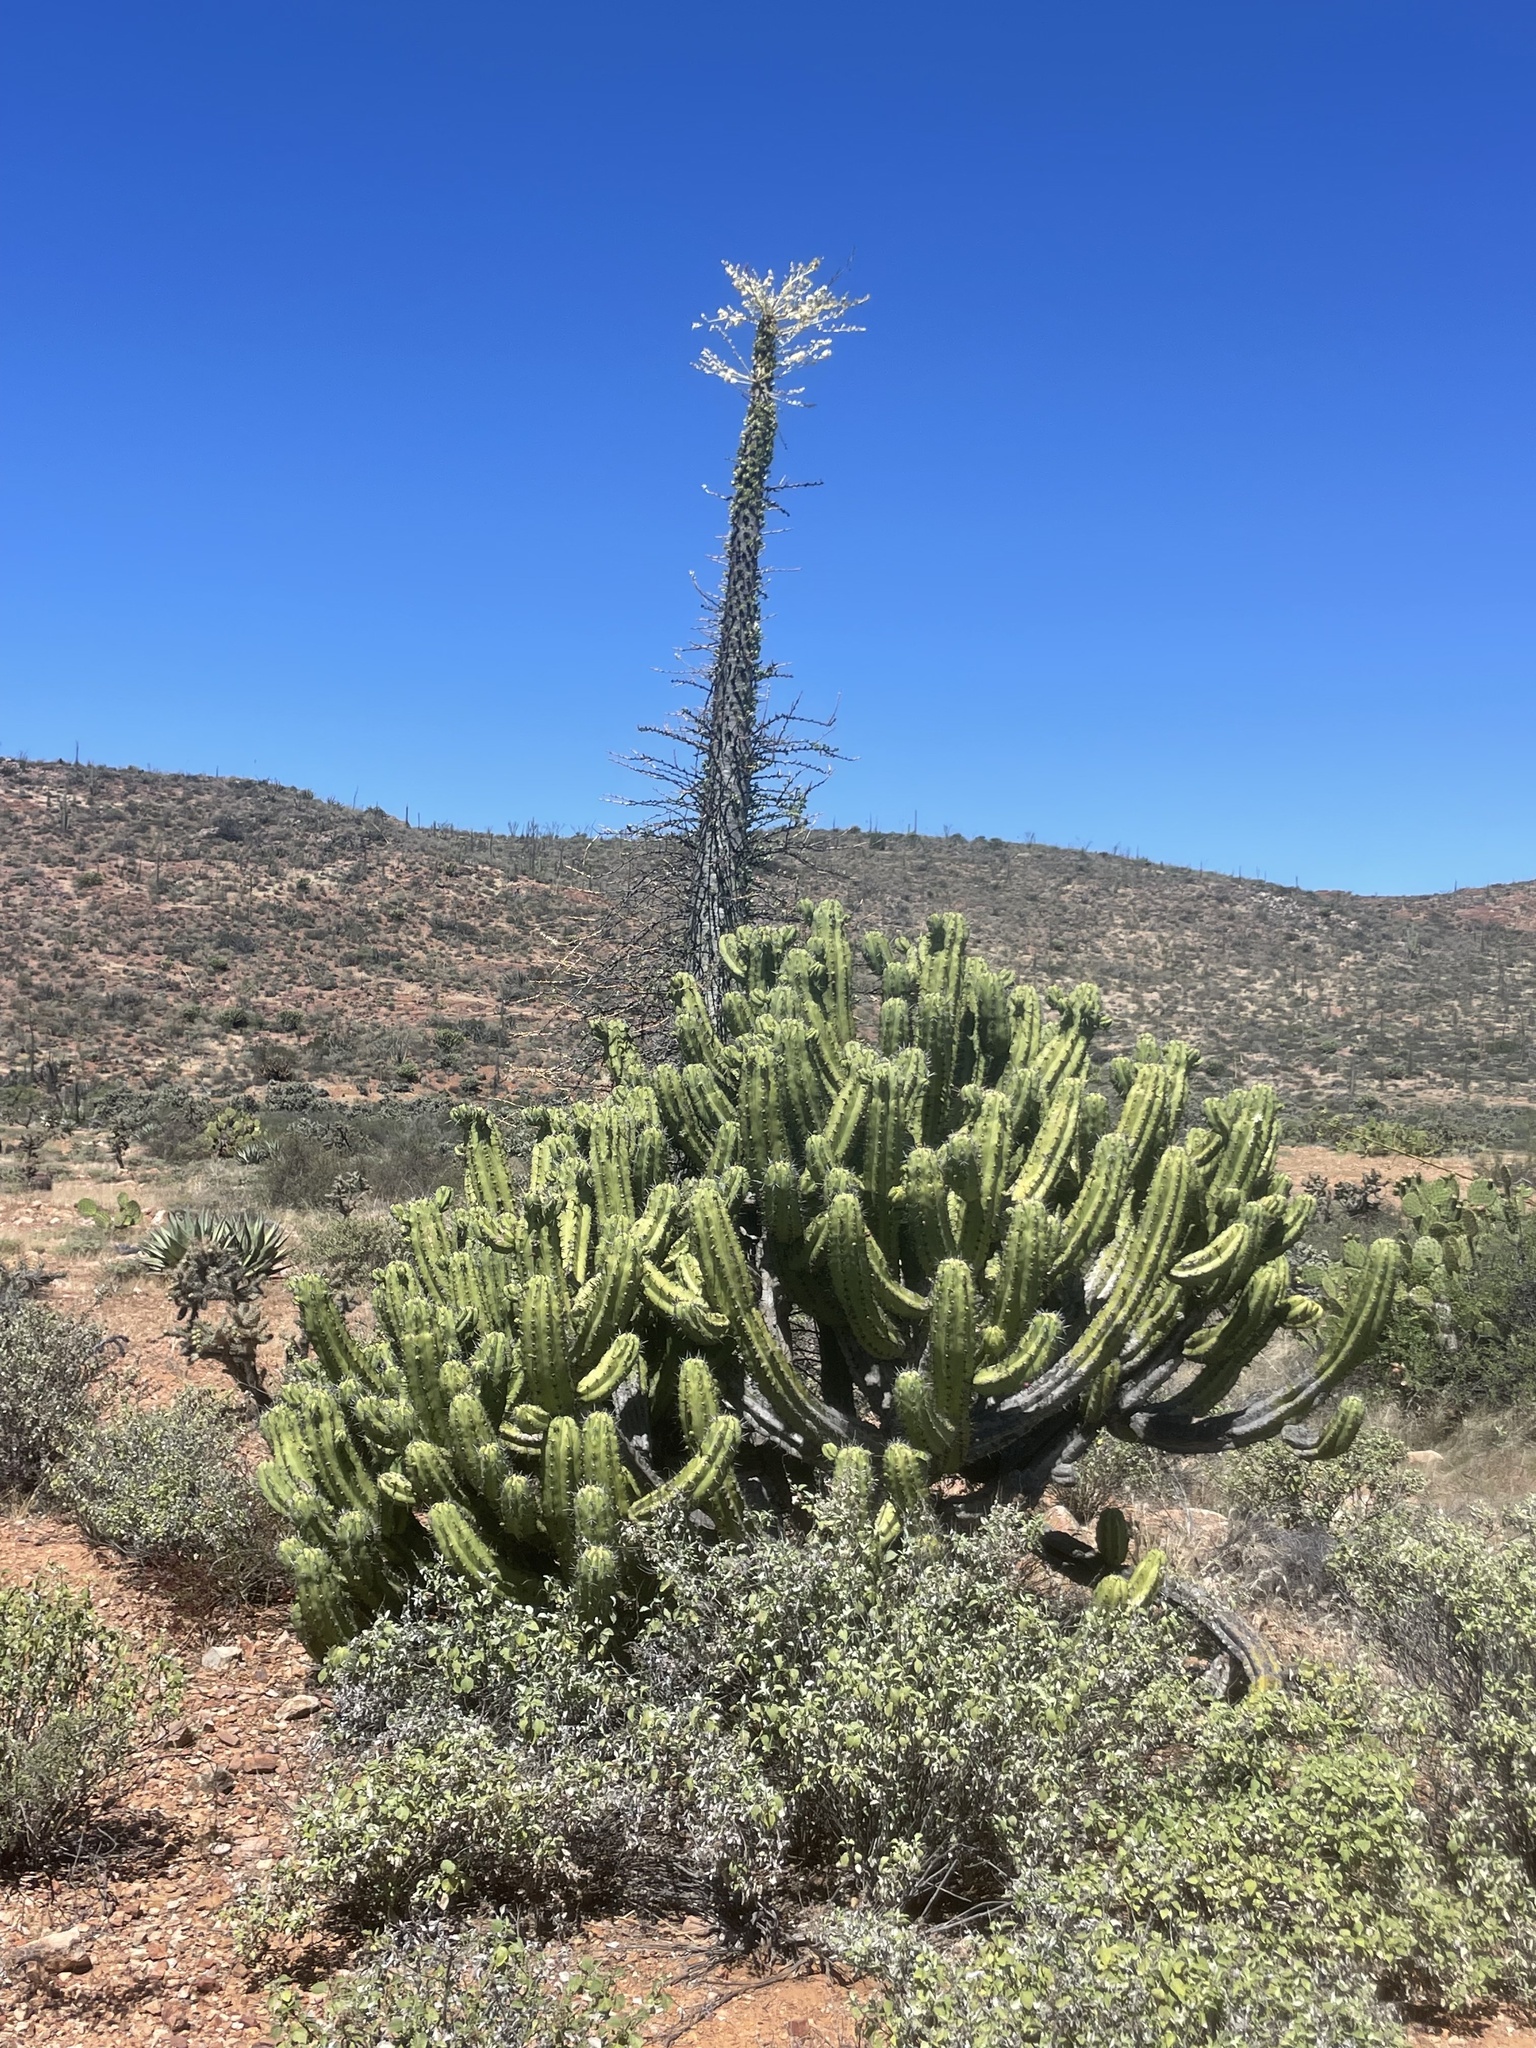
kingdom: Plantae
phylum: Tracheophyta
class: Magnoliopsida
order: Caryophyllales
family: Cactaceae
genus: Myrtillocactus
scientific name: Myrtillocactus cochal
